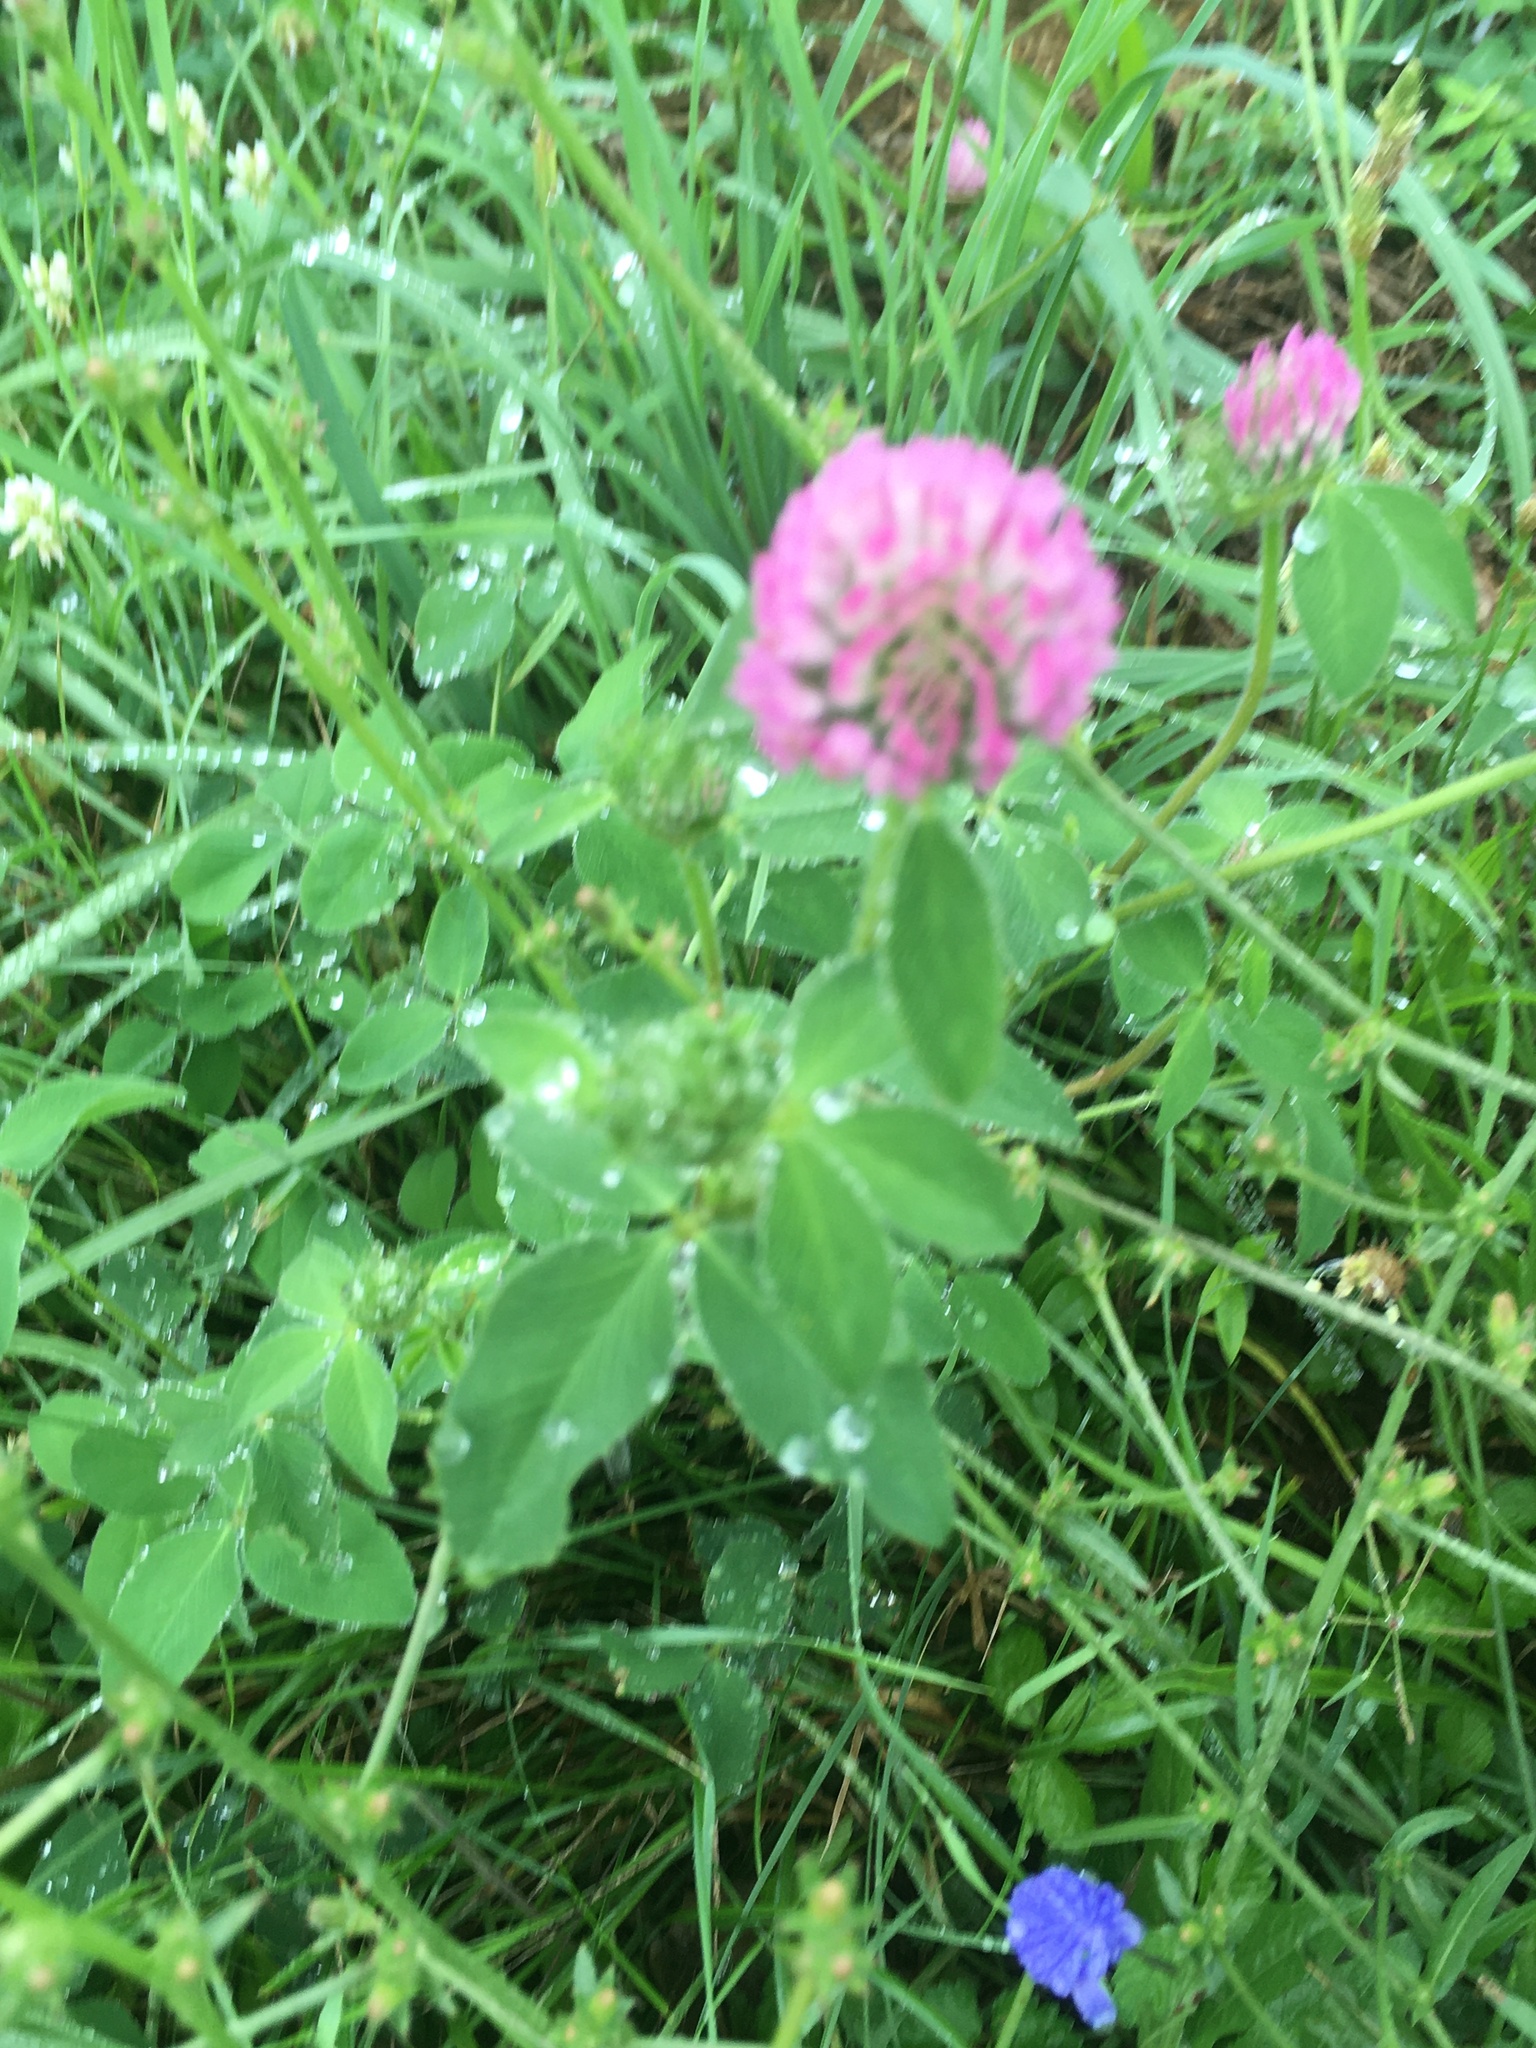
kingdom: Plantae
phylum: Tracheophyta
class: Magnoliopsida
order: Fabales
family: Fabaceae
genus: Trifolium
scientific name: Trifolium pratense
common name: Red clover
